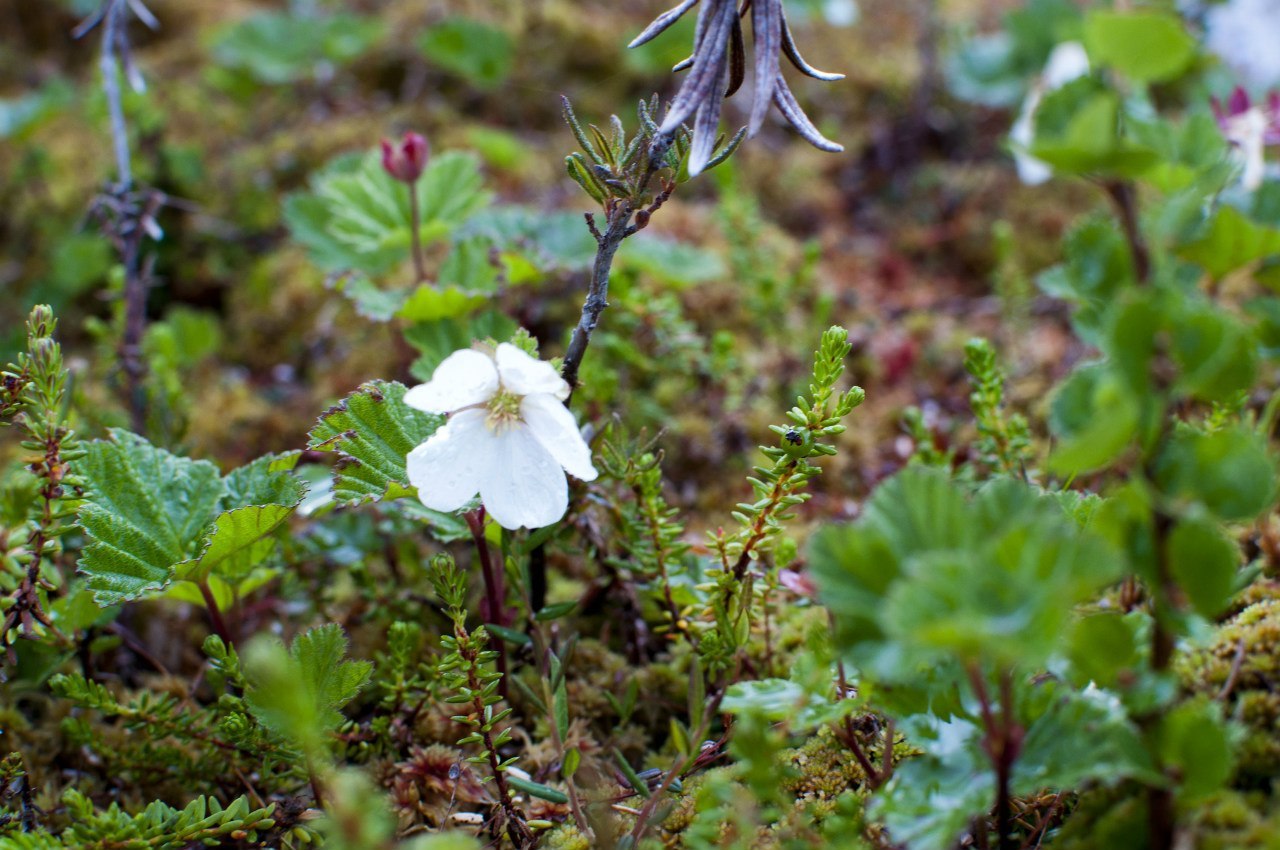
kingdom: Plantae
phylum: Tracheophyta
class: Magnoliopsida
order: Rosales
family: Rosaceae
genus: Rubus
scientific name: Rubus chamaemorus
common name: Cloudberry
